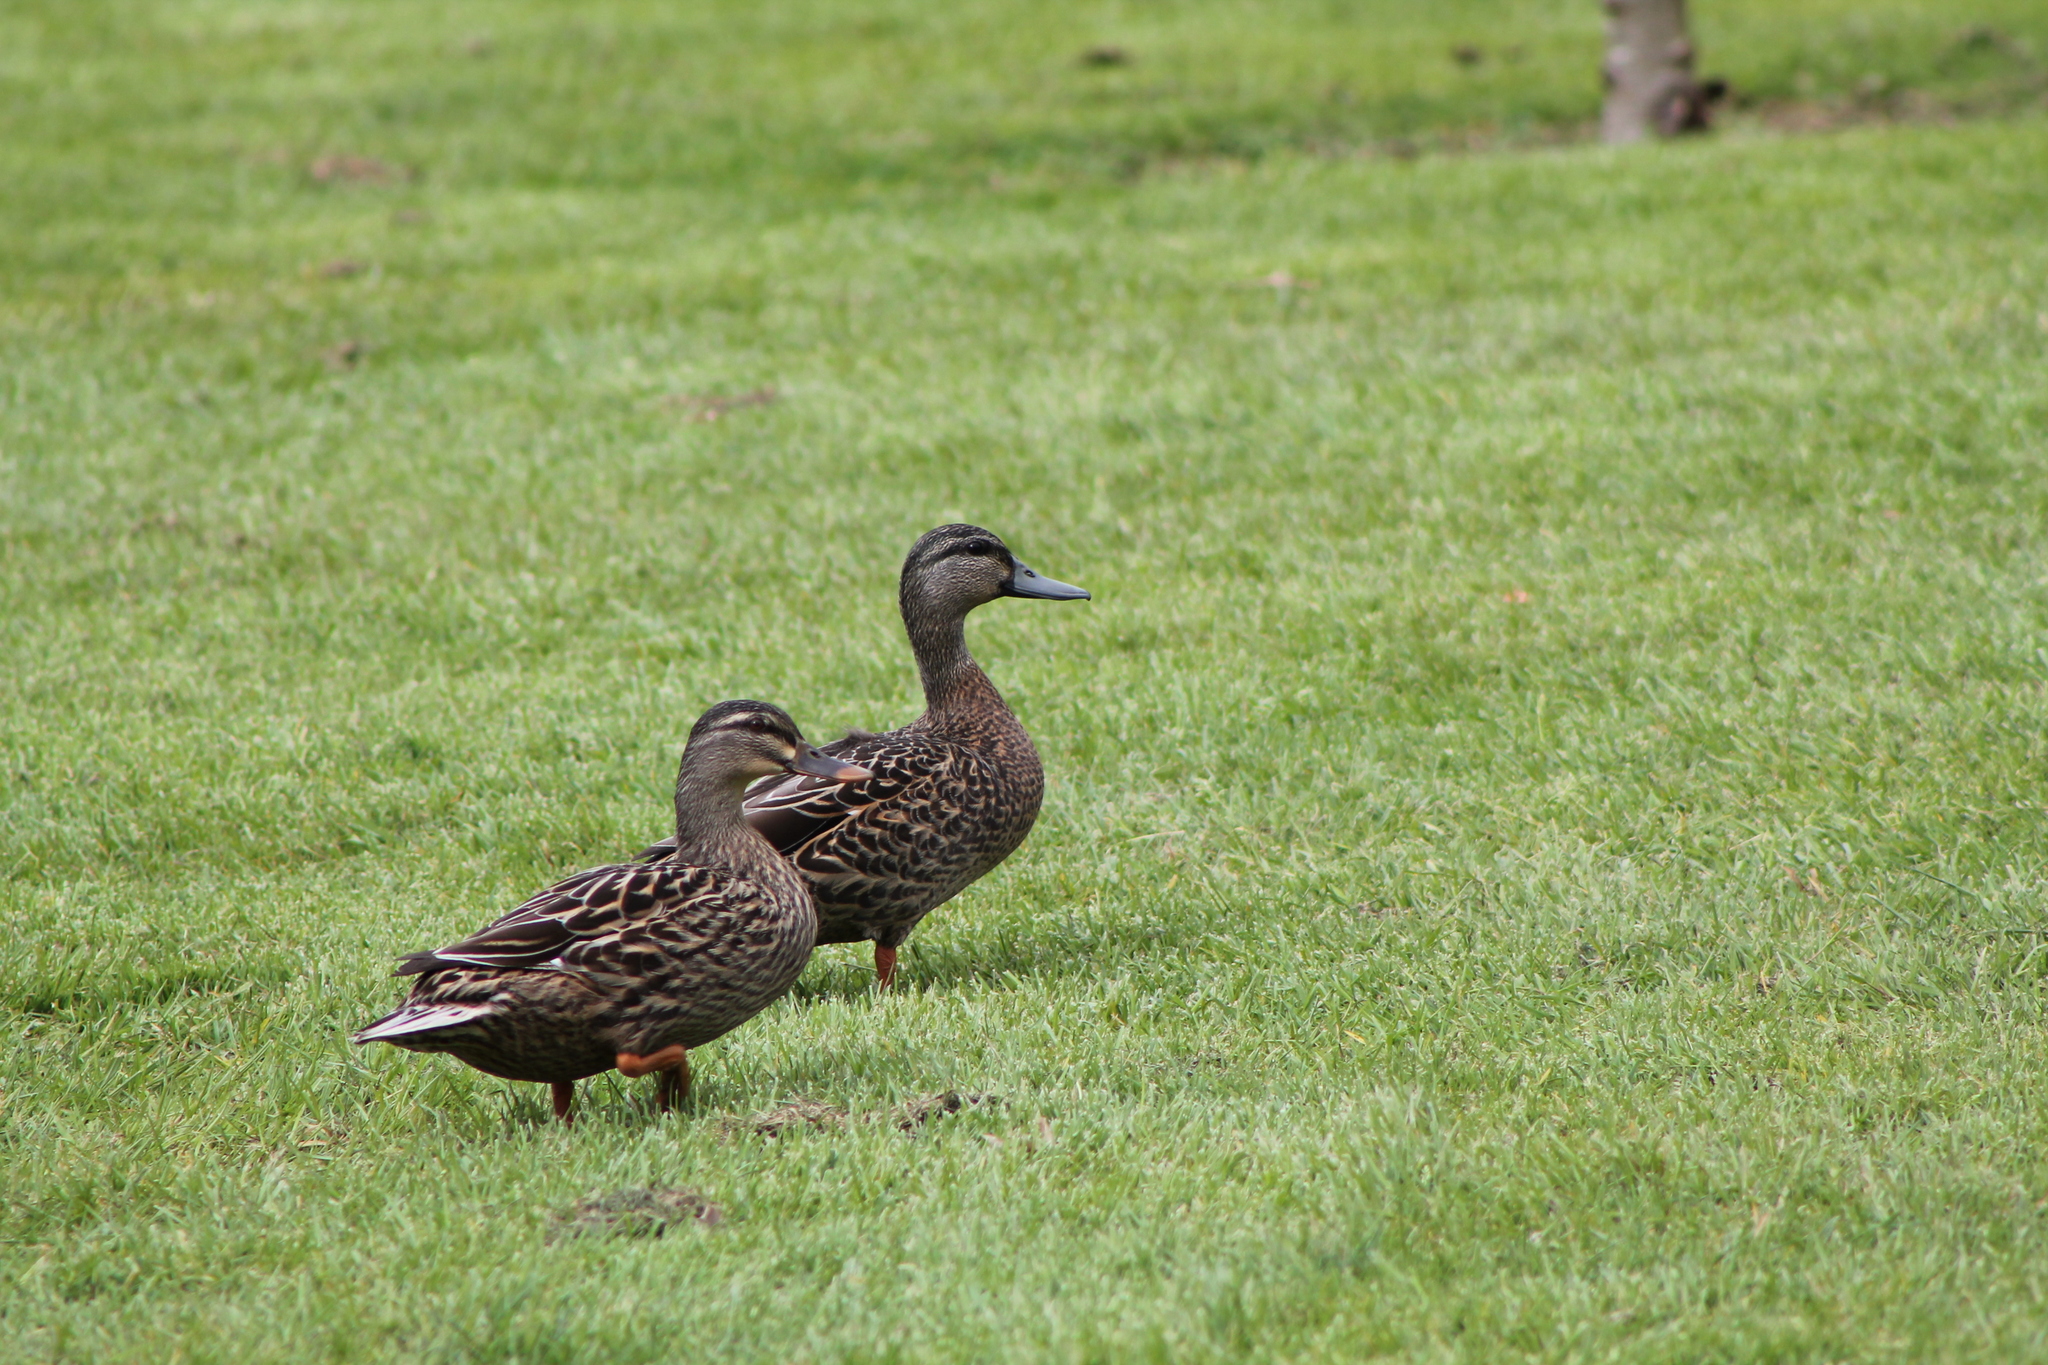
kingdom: Animalia
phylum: Chordata
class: Aves
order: Anseriformes
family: Anatidae
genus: Anas
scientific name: Anas
